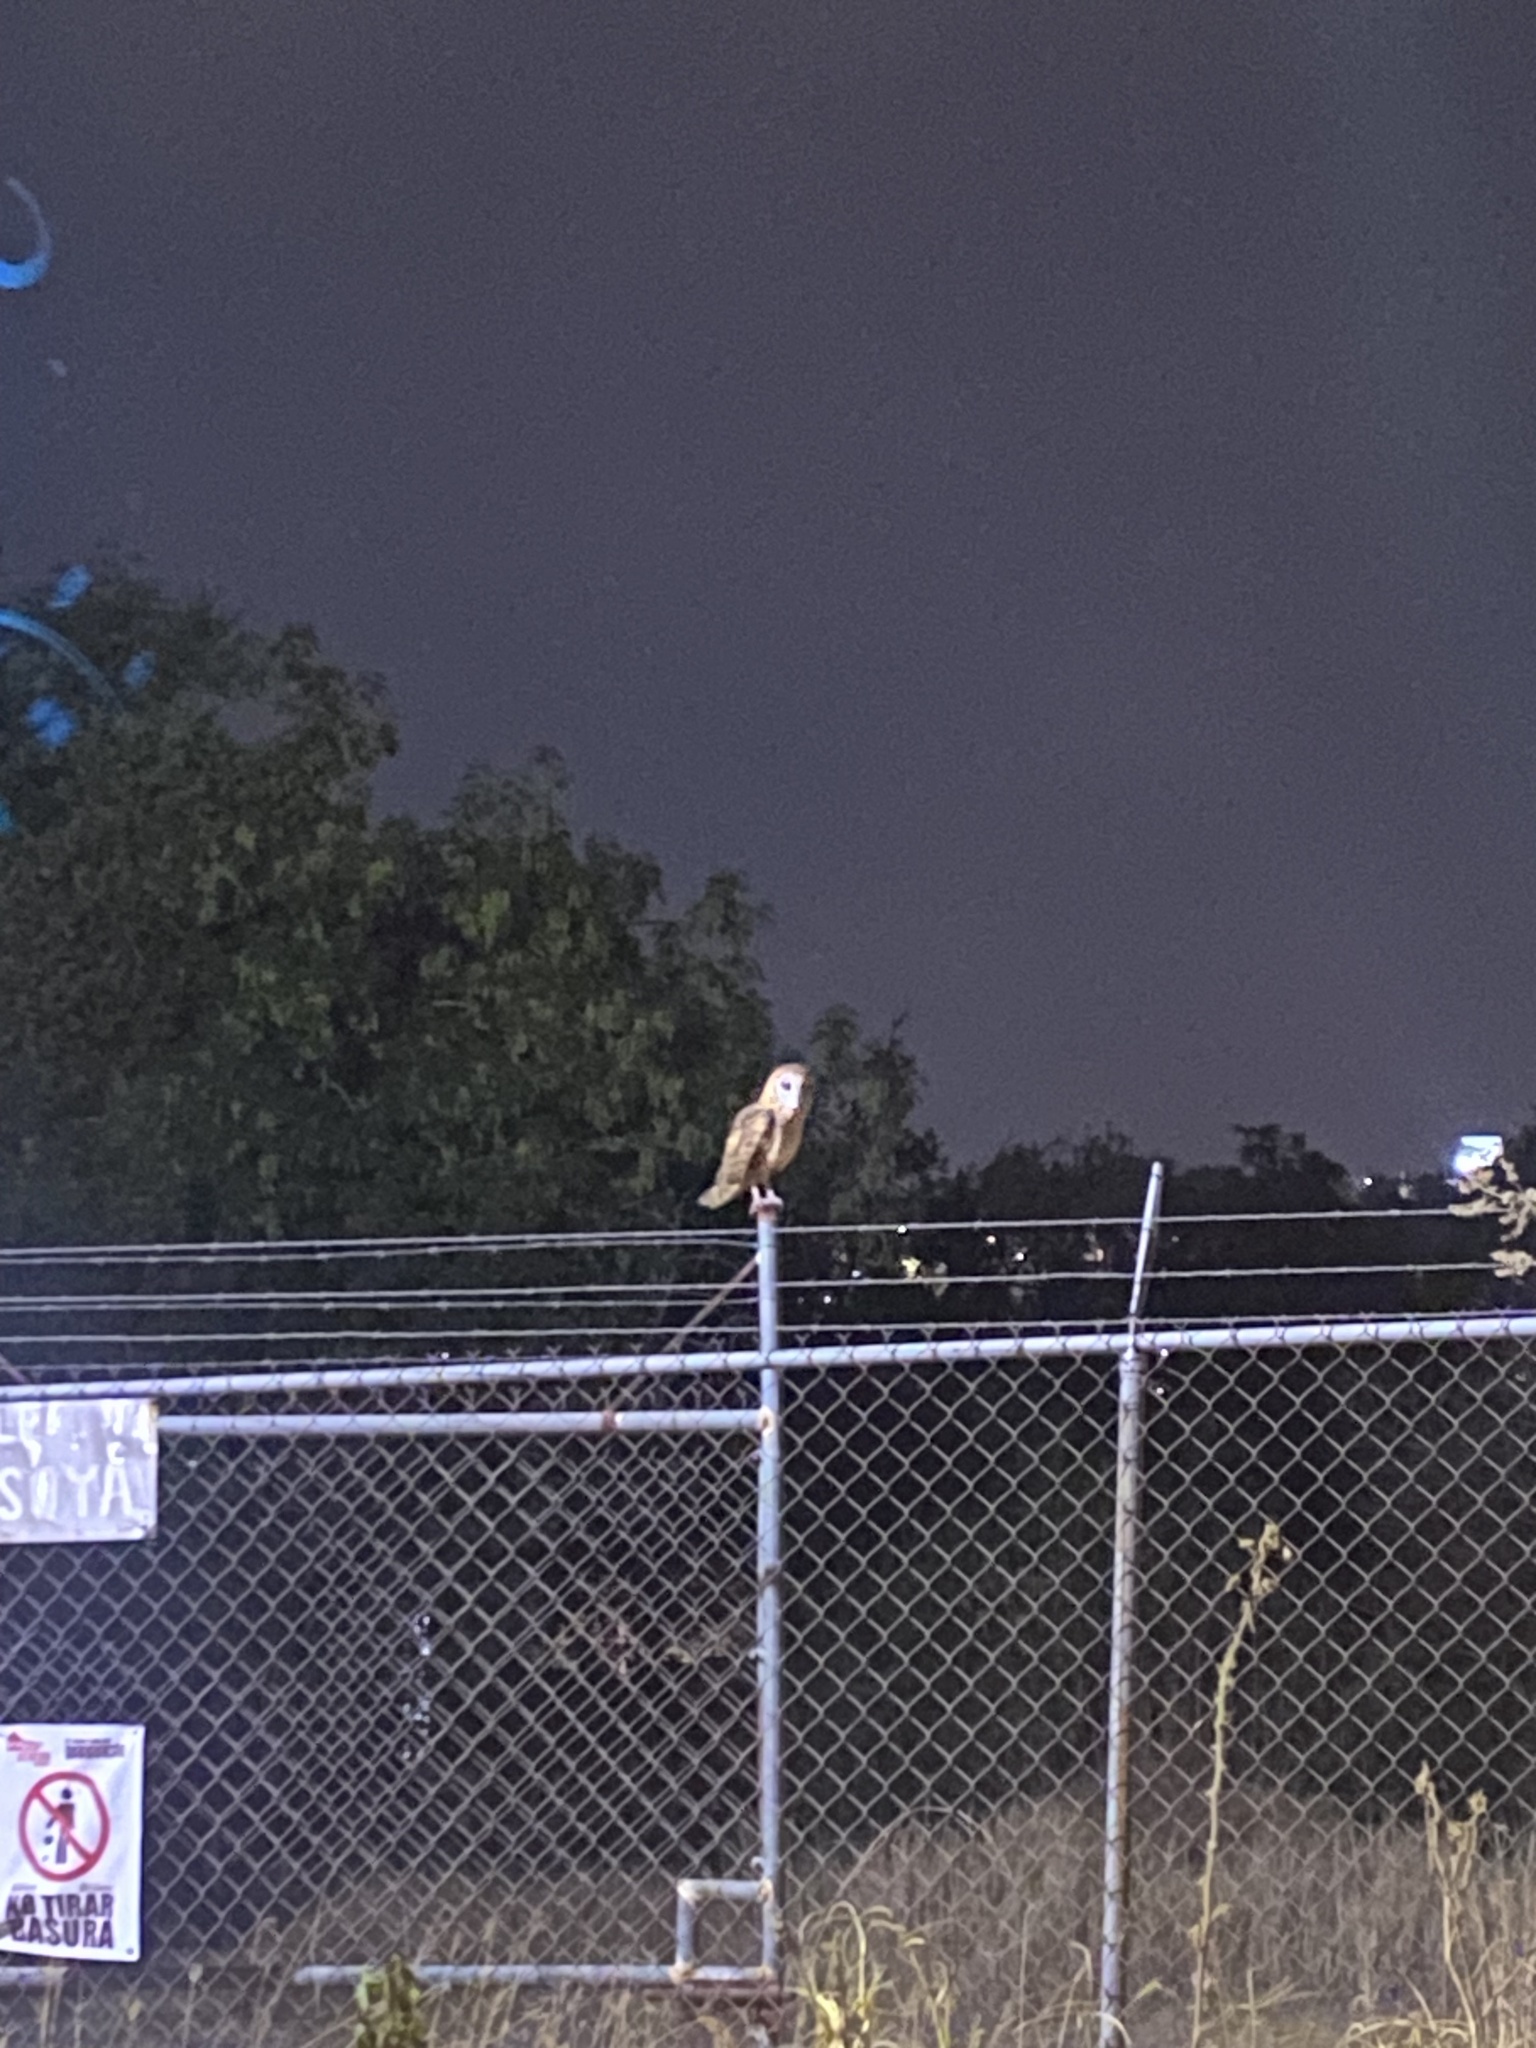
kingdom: Animalia
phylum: Chordata
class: Aves
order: Strigiformes
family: Tytonidae
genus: Tyto
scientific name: Tyto alba
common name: Barn owl
